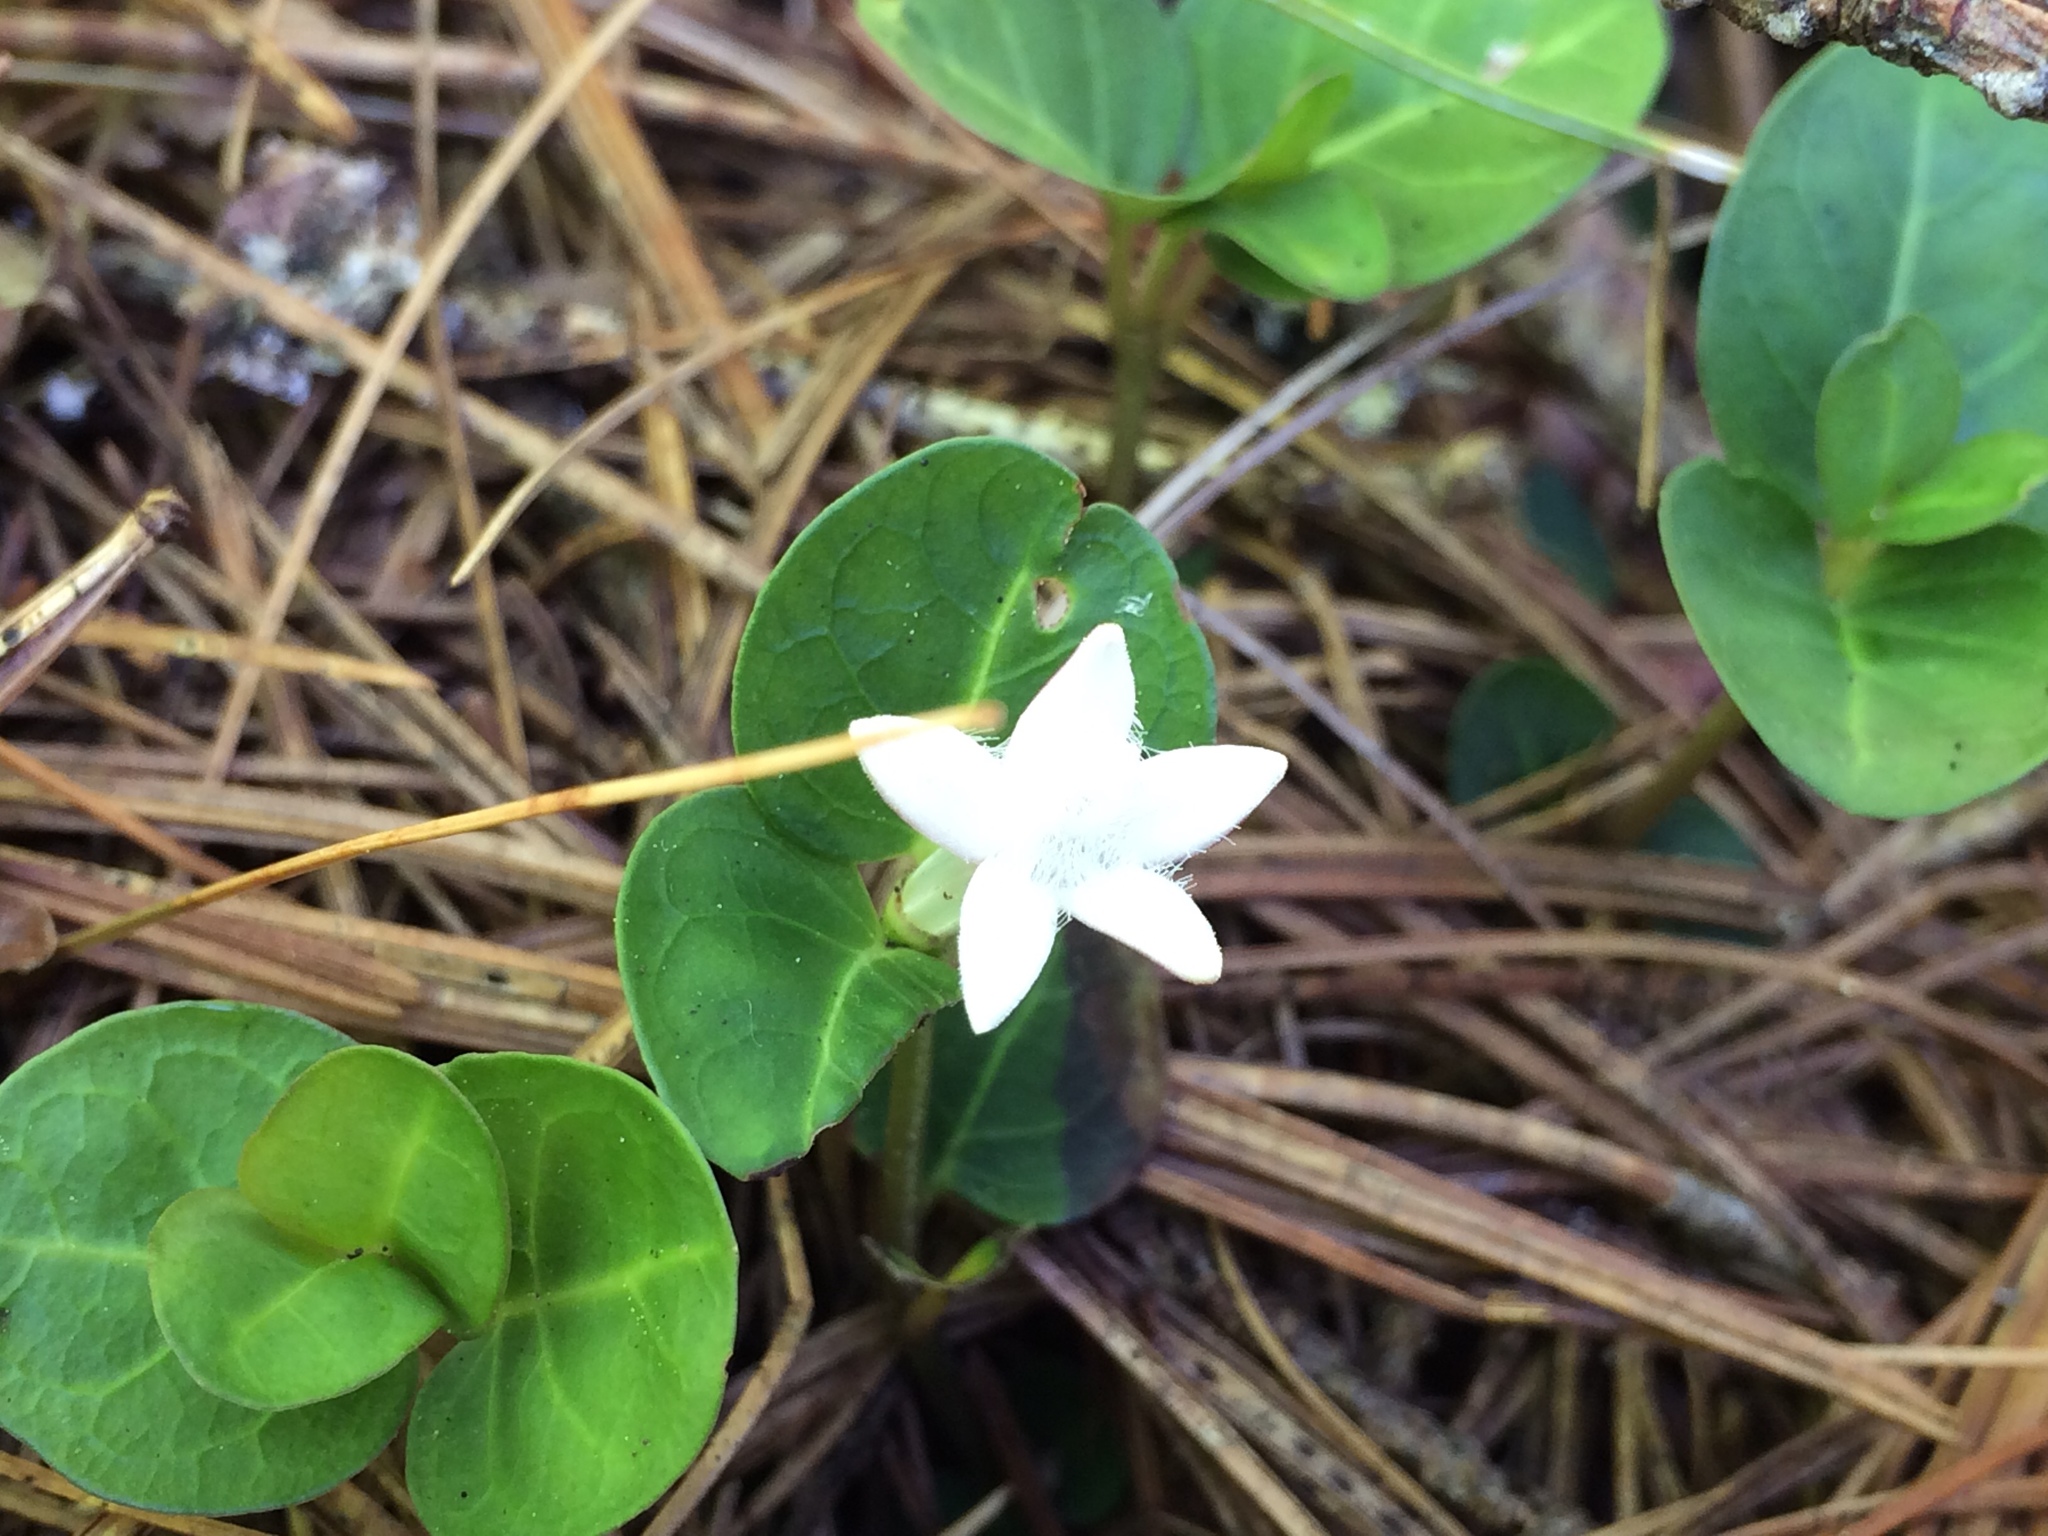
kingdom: Plantae
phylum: Tracheophyta
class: Magnoliopsida
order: Gentianales
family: Rubiaceae
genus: Mitchella
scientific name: Mitchella repens
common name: Partridge-berry
